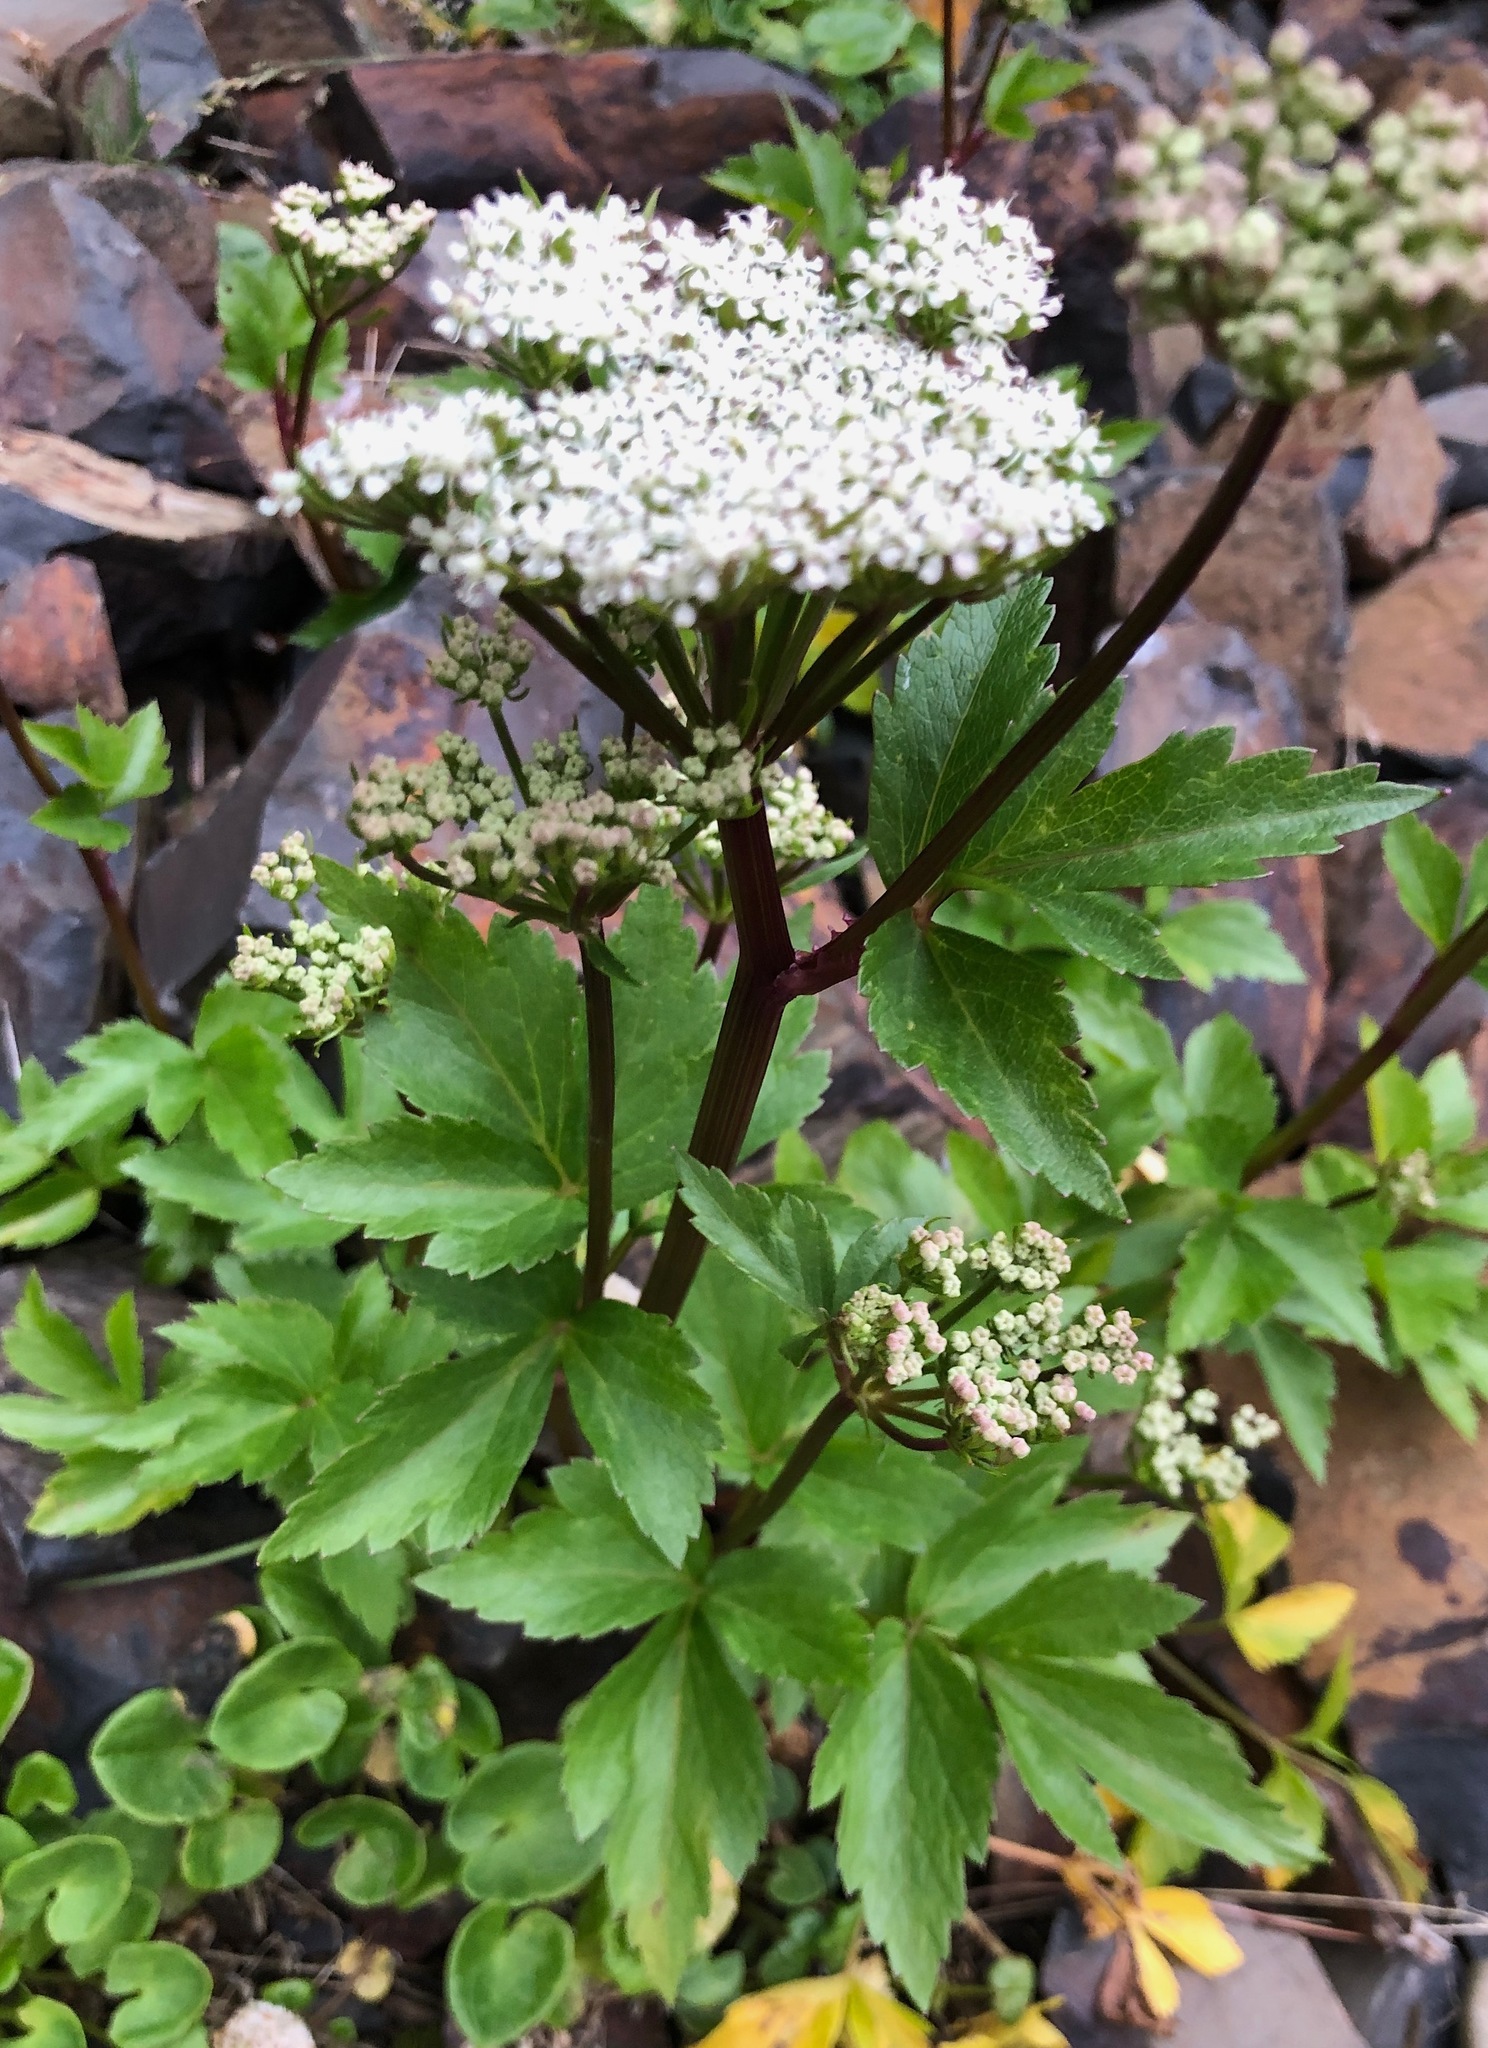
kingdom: Plantae
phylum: Tracheophyta
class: Magnoliopsida
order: Apiales
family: Apiaceae
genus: Ligusticum
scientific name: Ligusticum scothicum
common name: Beach lovage
